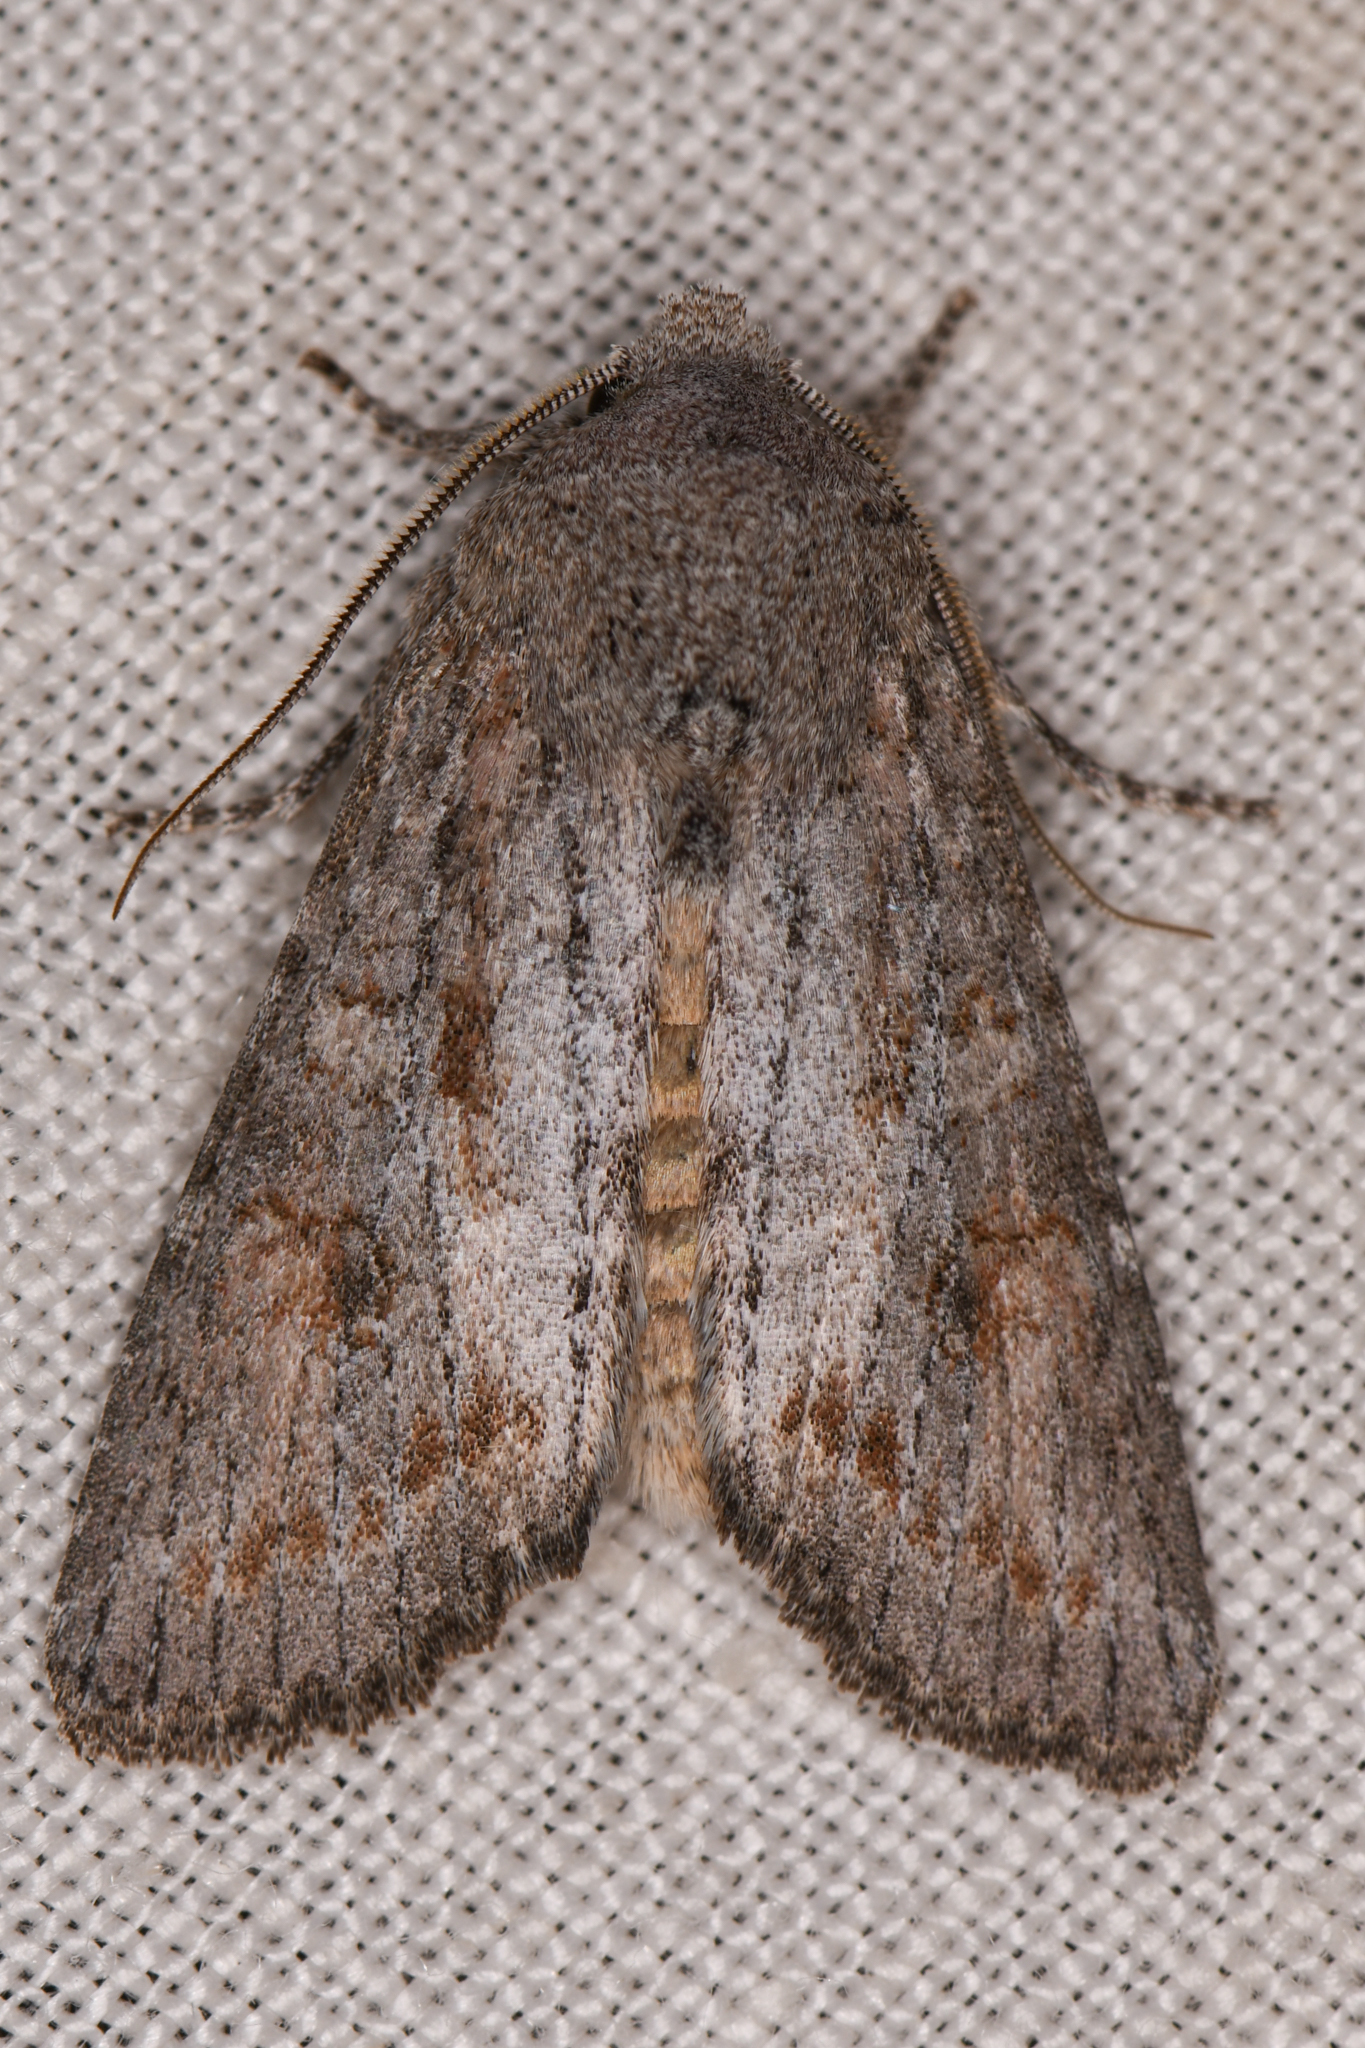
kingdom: Animalia
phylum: Arthropoda
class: Insecta
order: Lepidoptera
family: Noctuidae
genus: Egira
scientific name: Egira curialis
